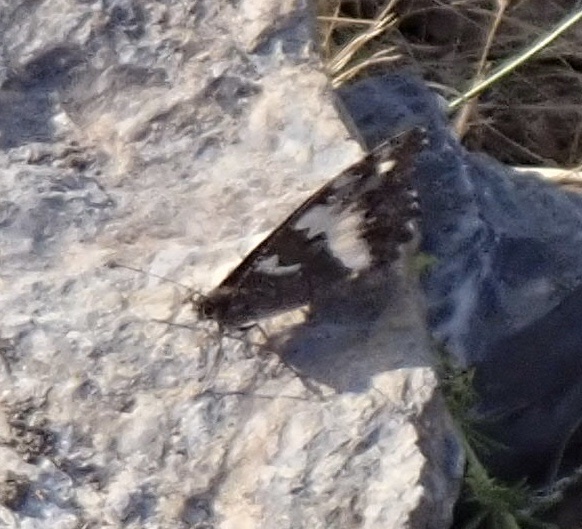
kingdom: Animalia
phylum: Arthropoda
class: Insecta
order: Lepidoptera
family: Lycaenidae
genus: Loweia
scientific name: Loweia tityrus
